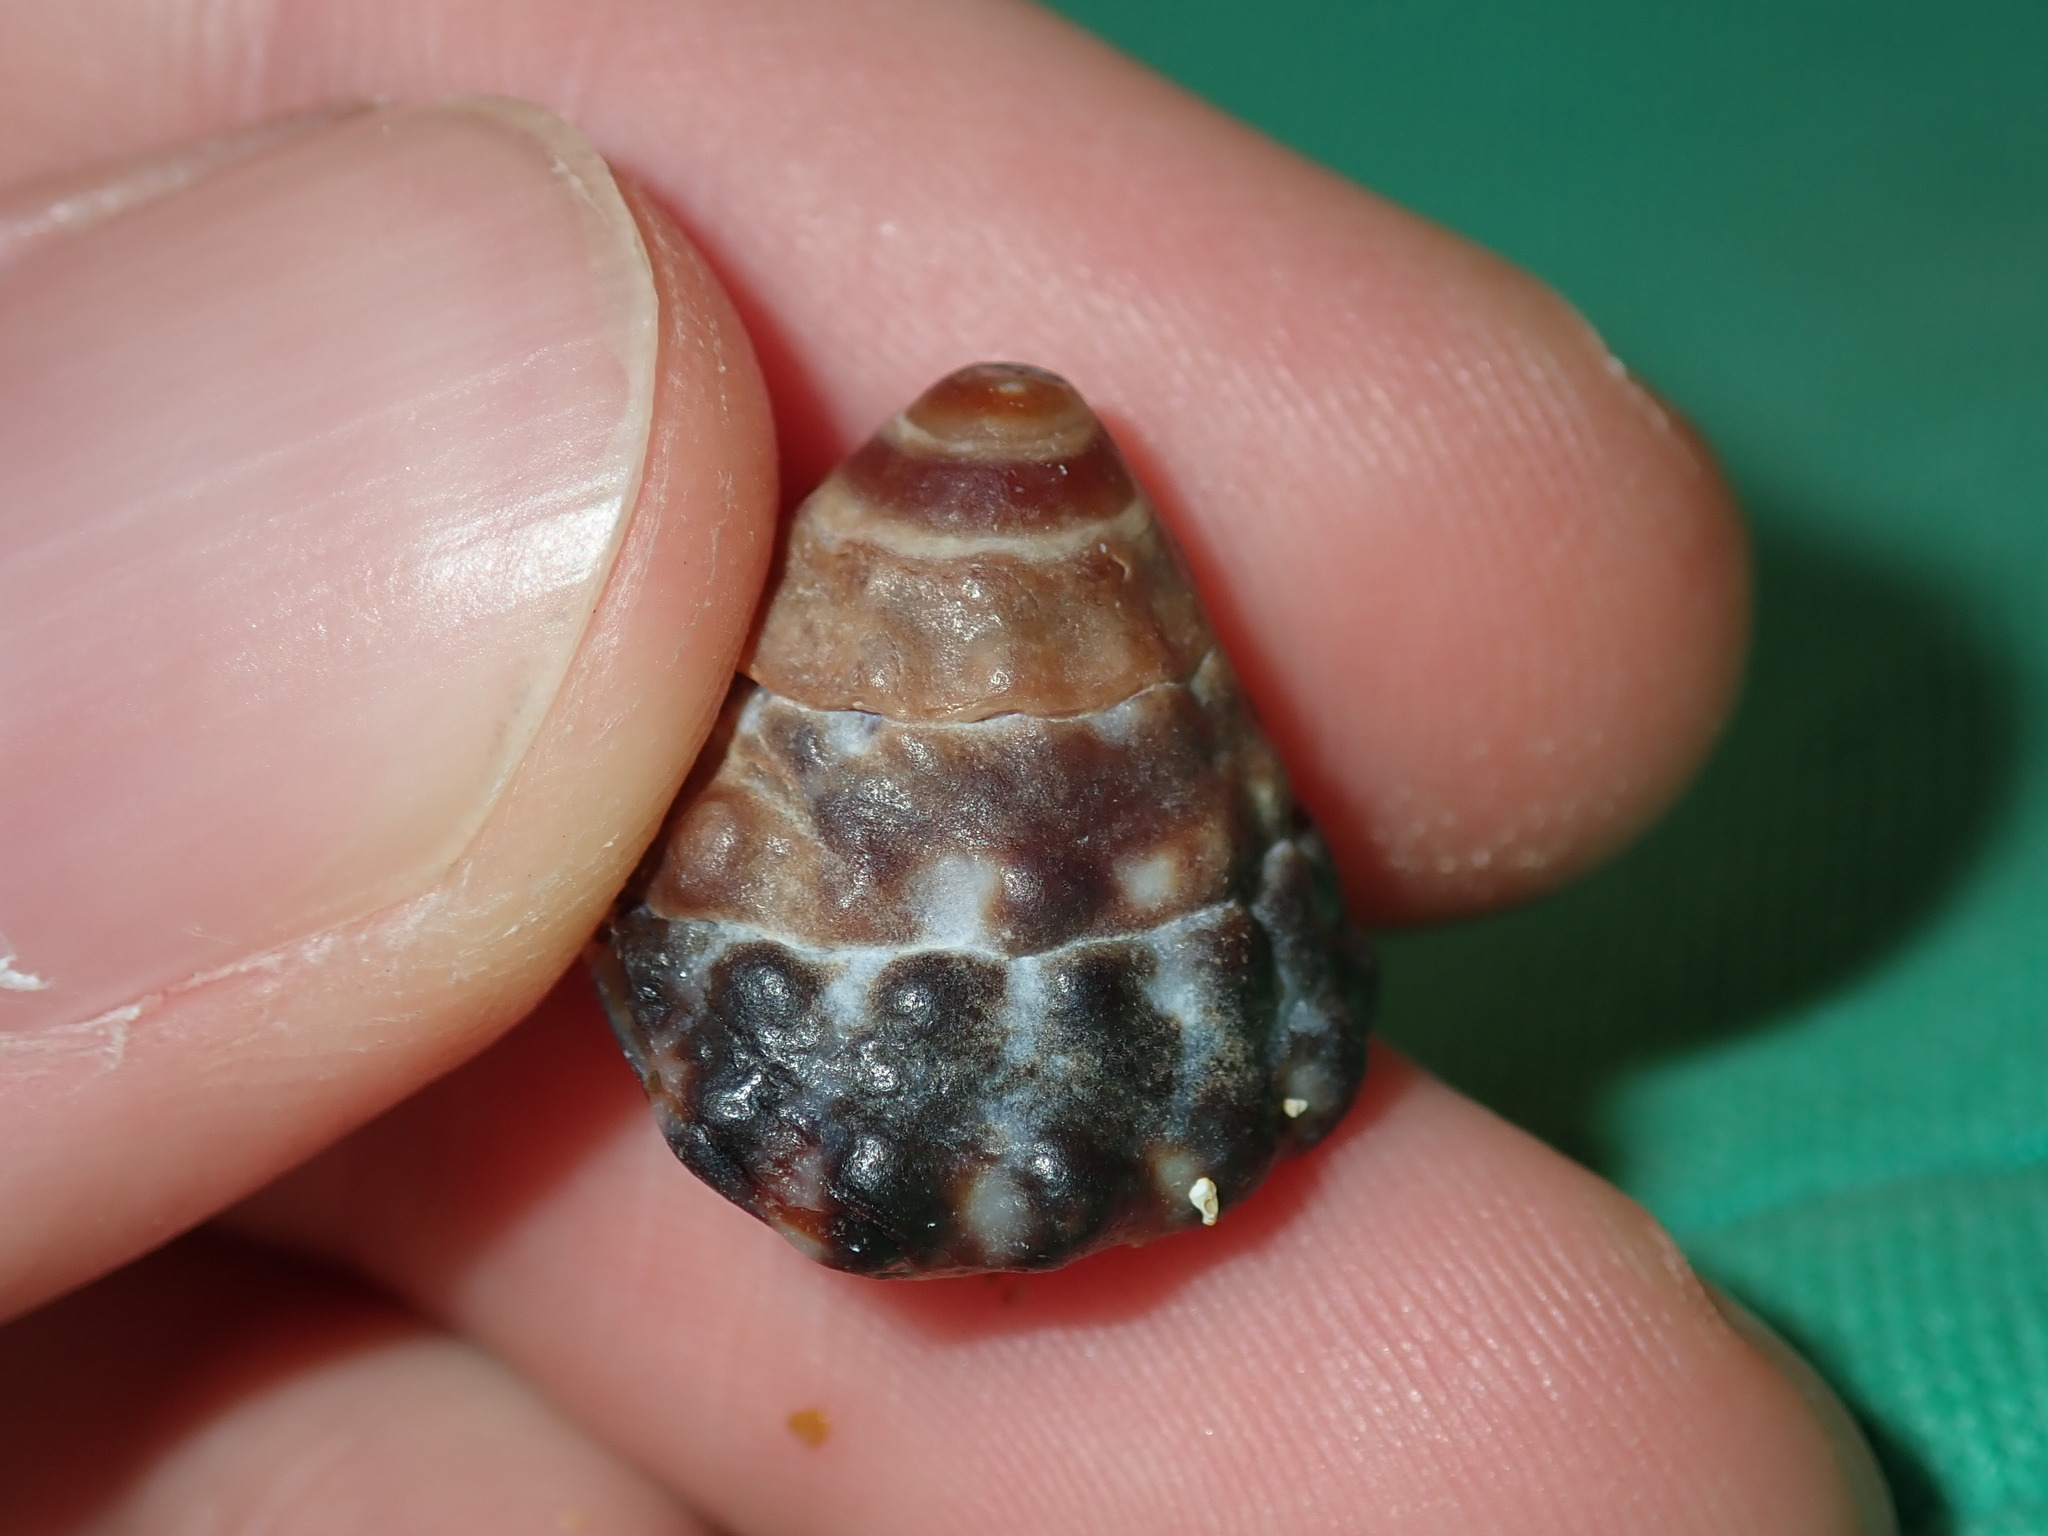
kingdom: Animalia
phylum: Mollusca
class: Gastropoda
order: Littorinimorpha
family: Littorinidae
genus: Bembicium
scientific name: Bembicium auratum
